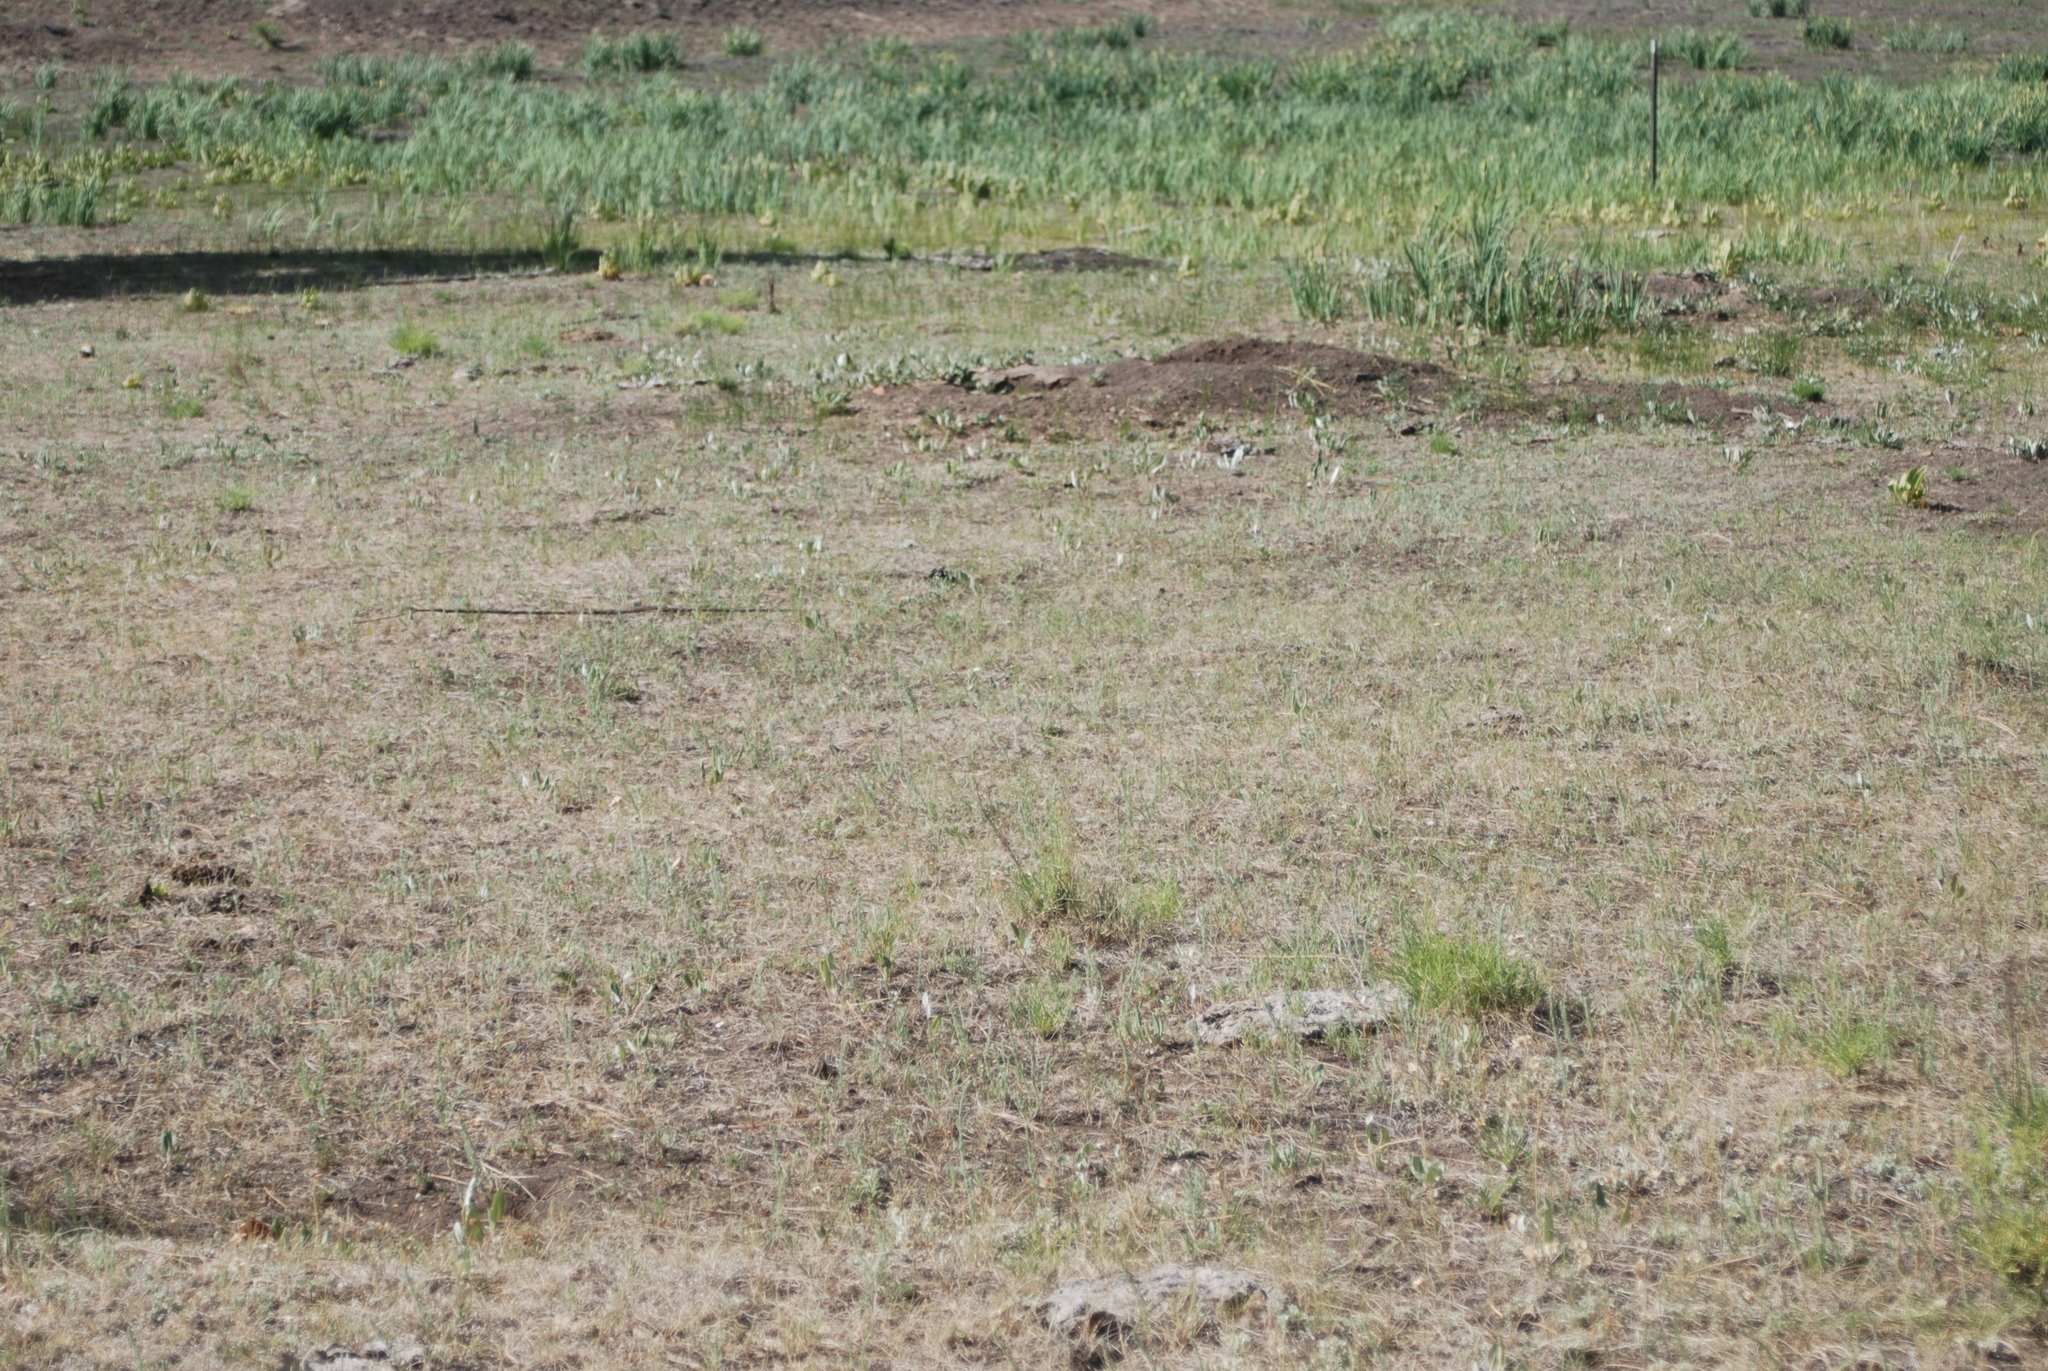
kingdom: Animalia
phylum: Chordata
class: Mammalia
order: Rodentia
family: Sciuridae
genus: Cynomys
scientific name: Cynomys gunnisoni
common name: Gunnison's prairie dog
